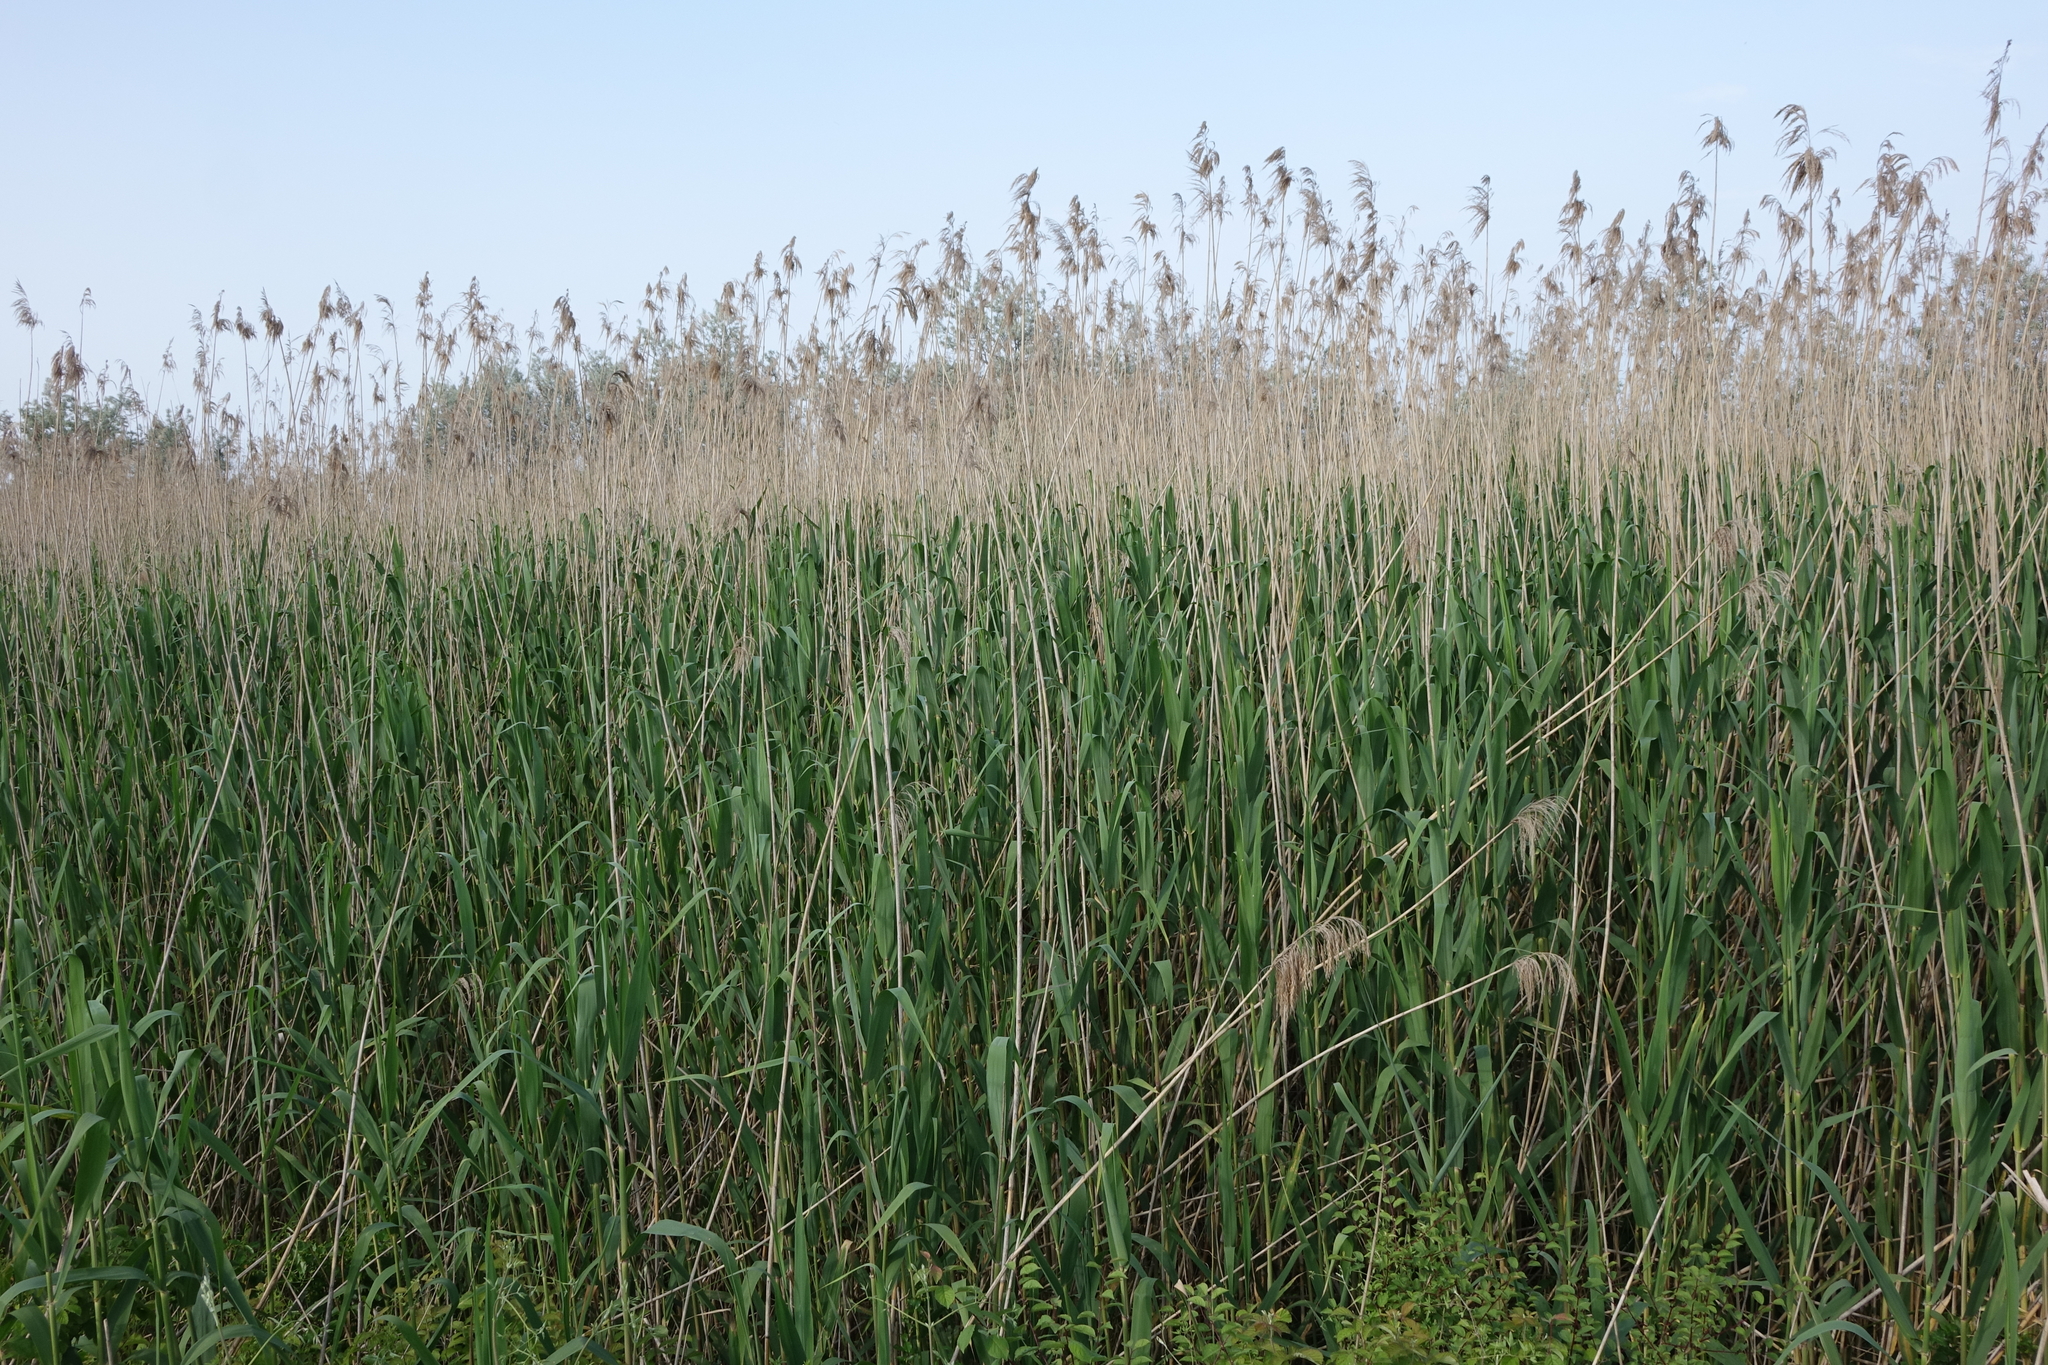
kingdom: Plantae
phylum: Tracheophyta
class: Liliopsida
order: Poales
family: Poaceae
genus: Phragmites
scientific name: Phragmites australis
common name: Common reed
